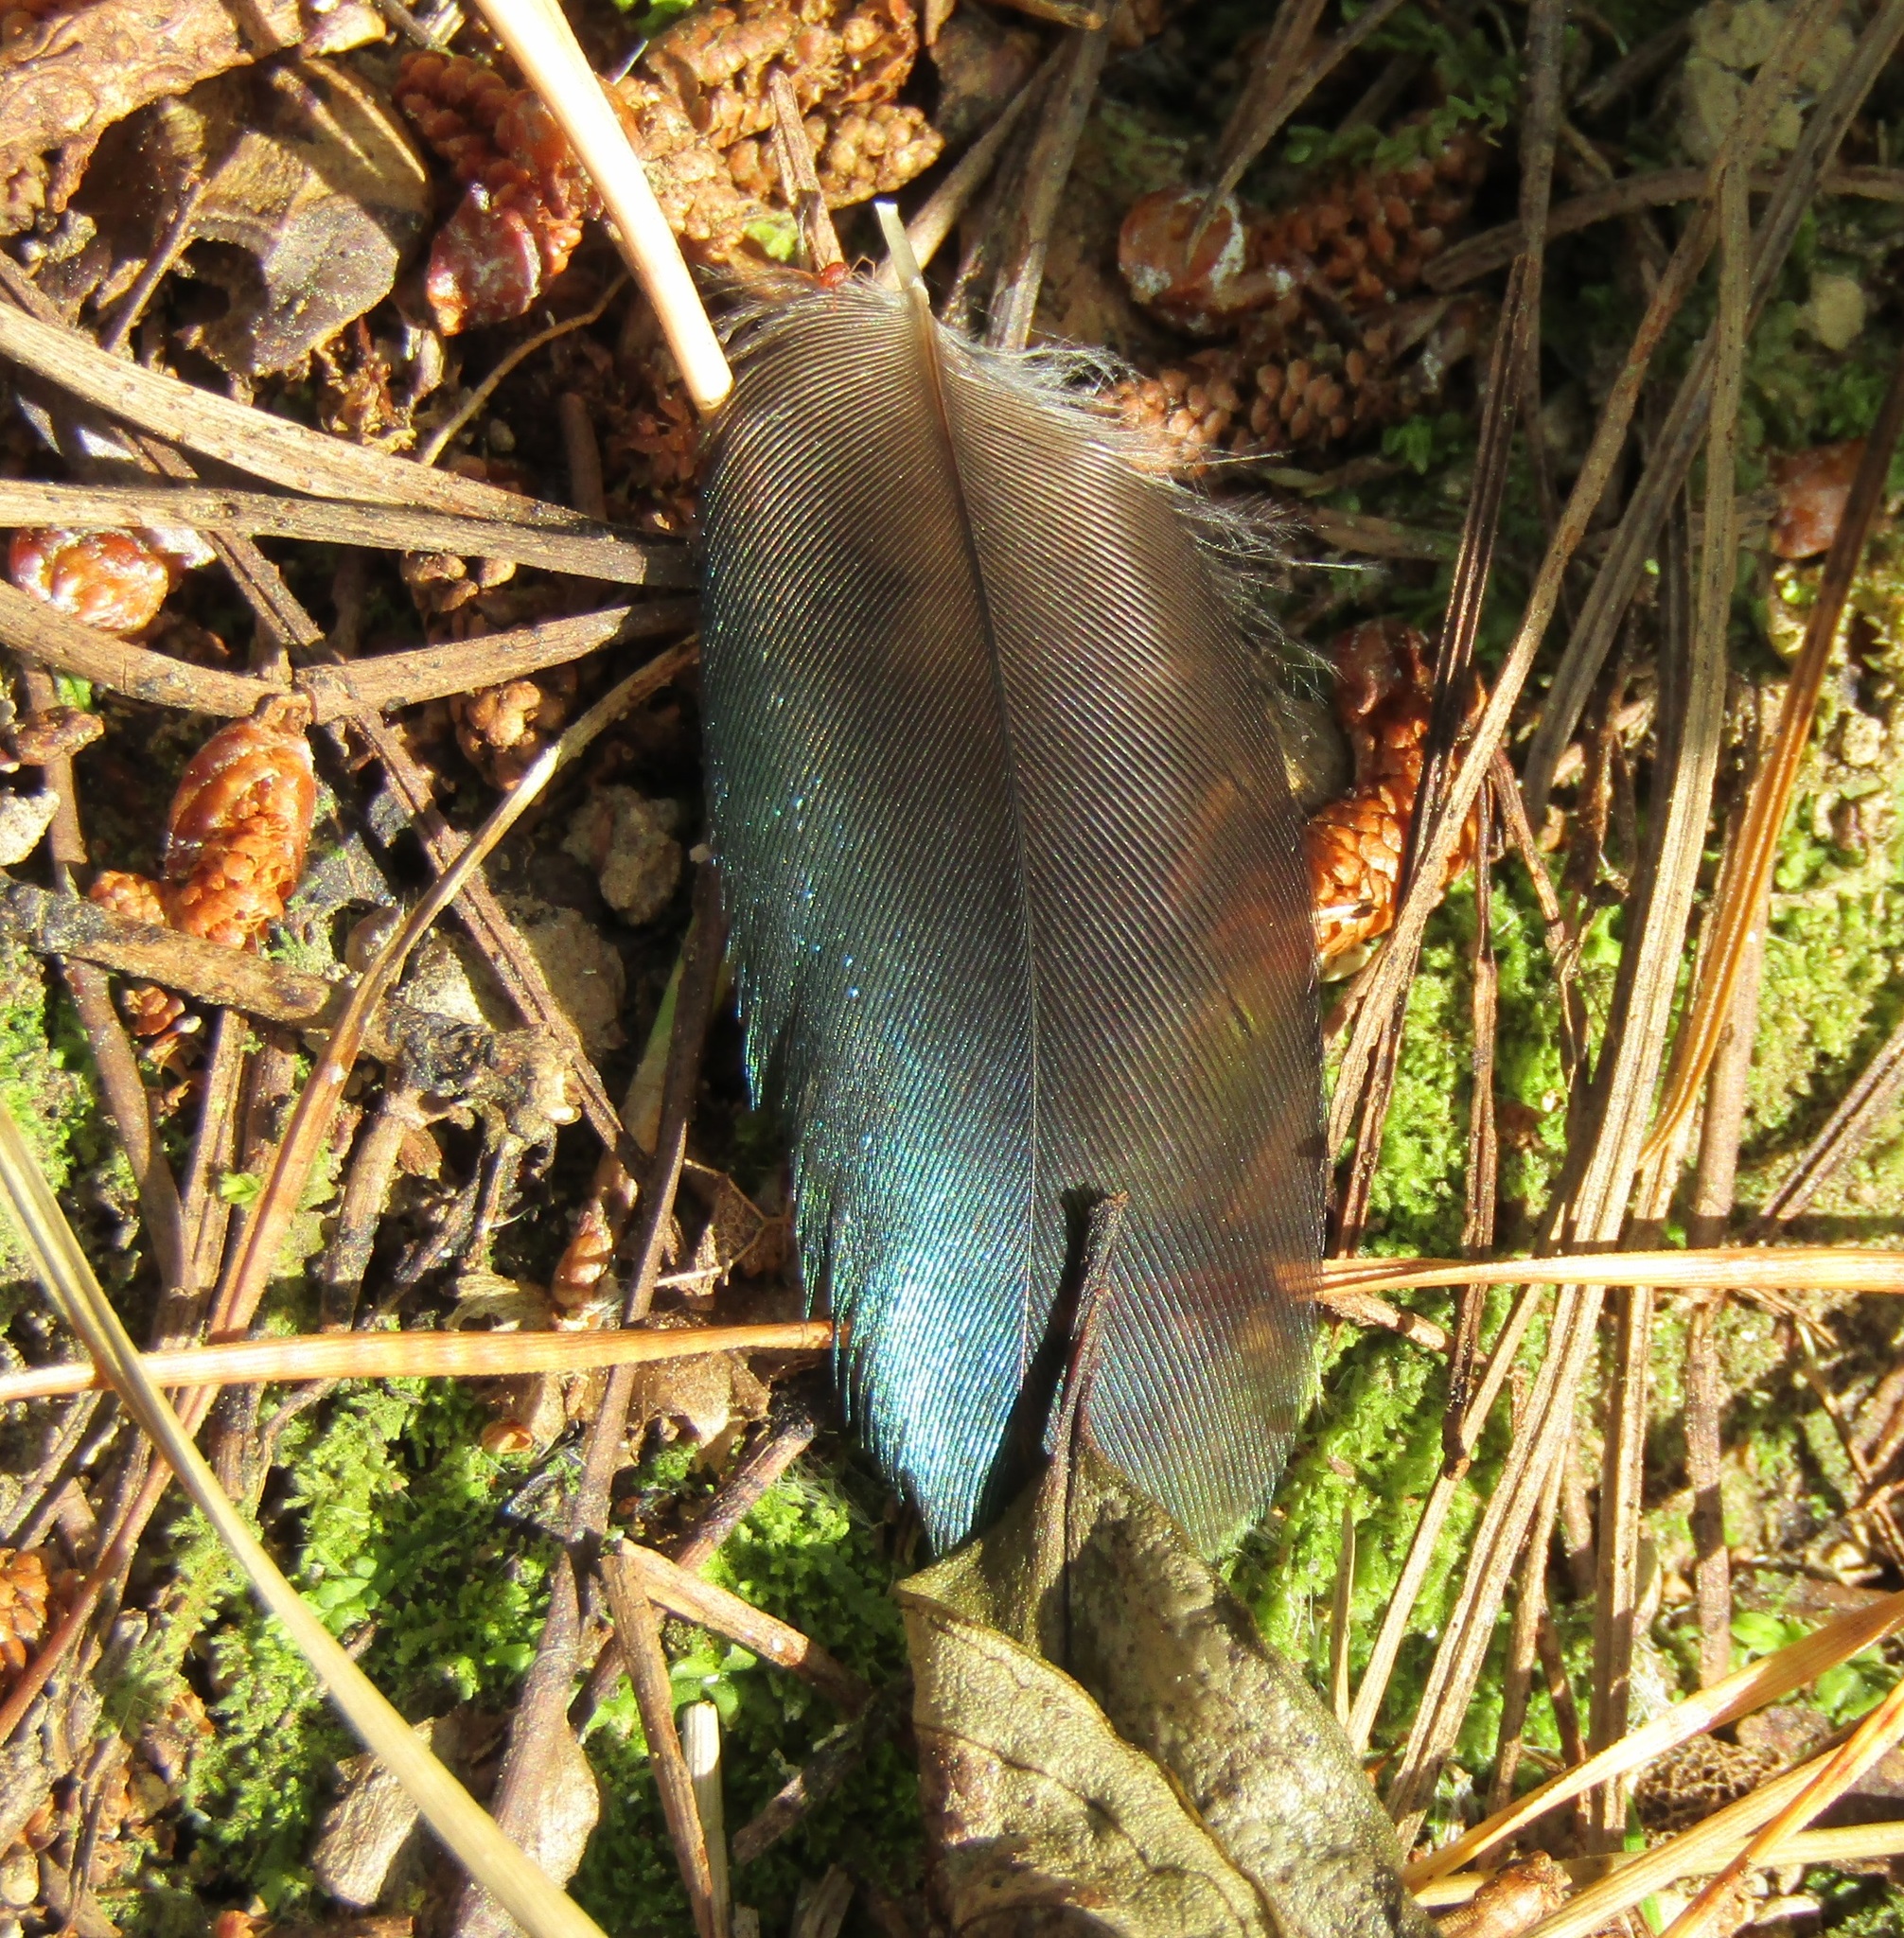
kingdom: Animalia
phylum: Chordata
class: Aves
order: Passeriformes
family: Meliphagidae
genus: Prosthemadera
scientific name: Prosthemadera novaeseelandiae
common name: Tui
